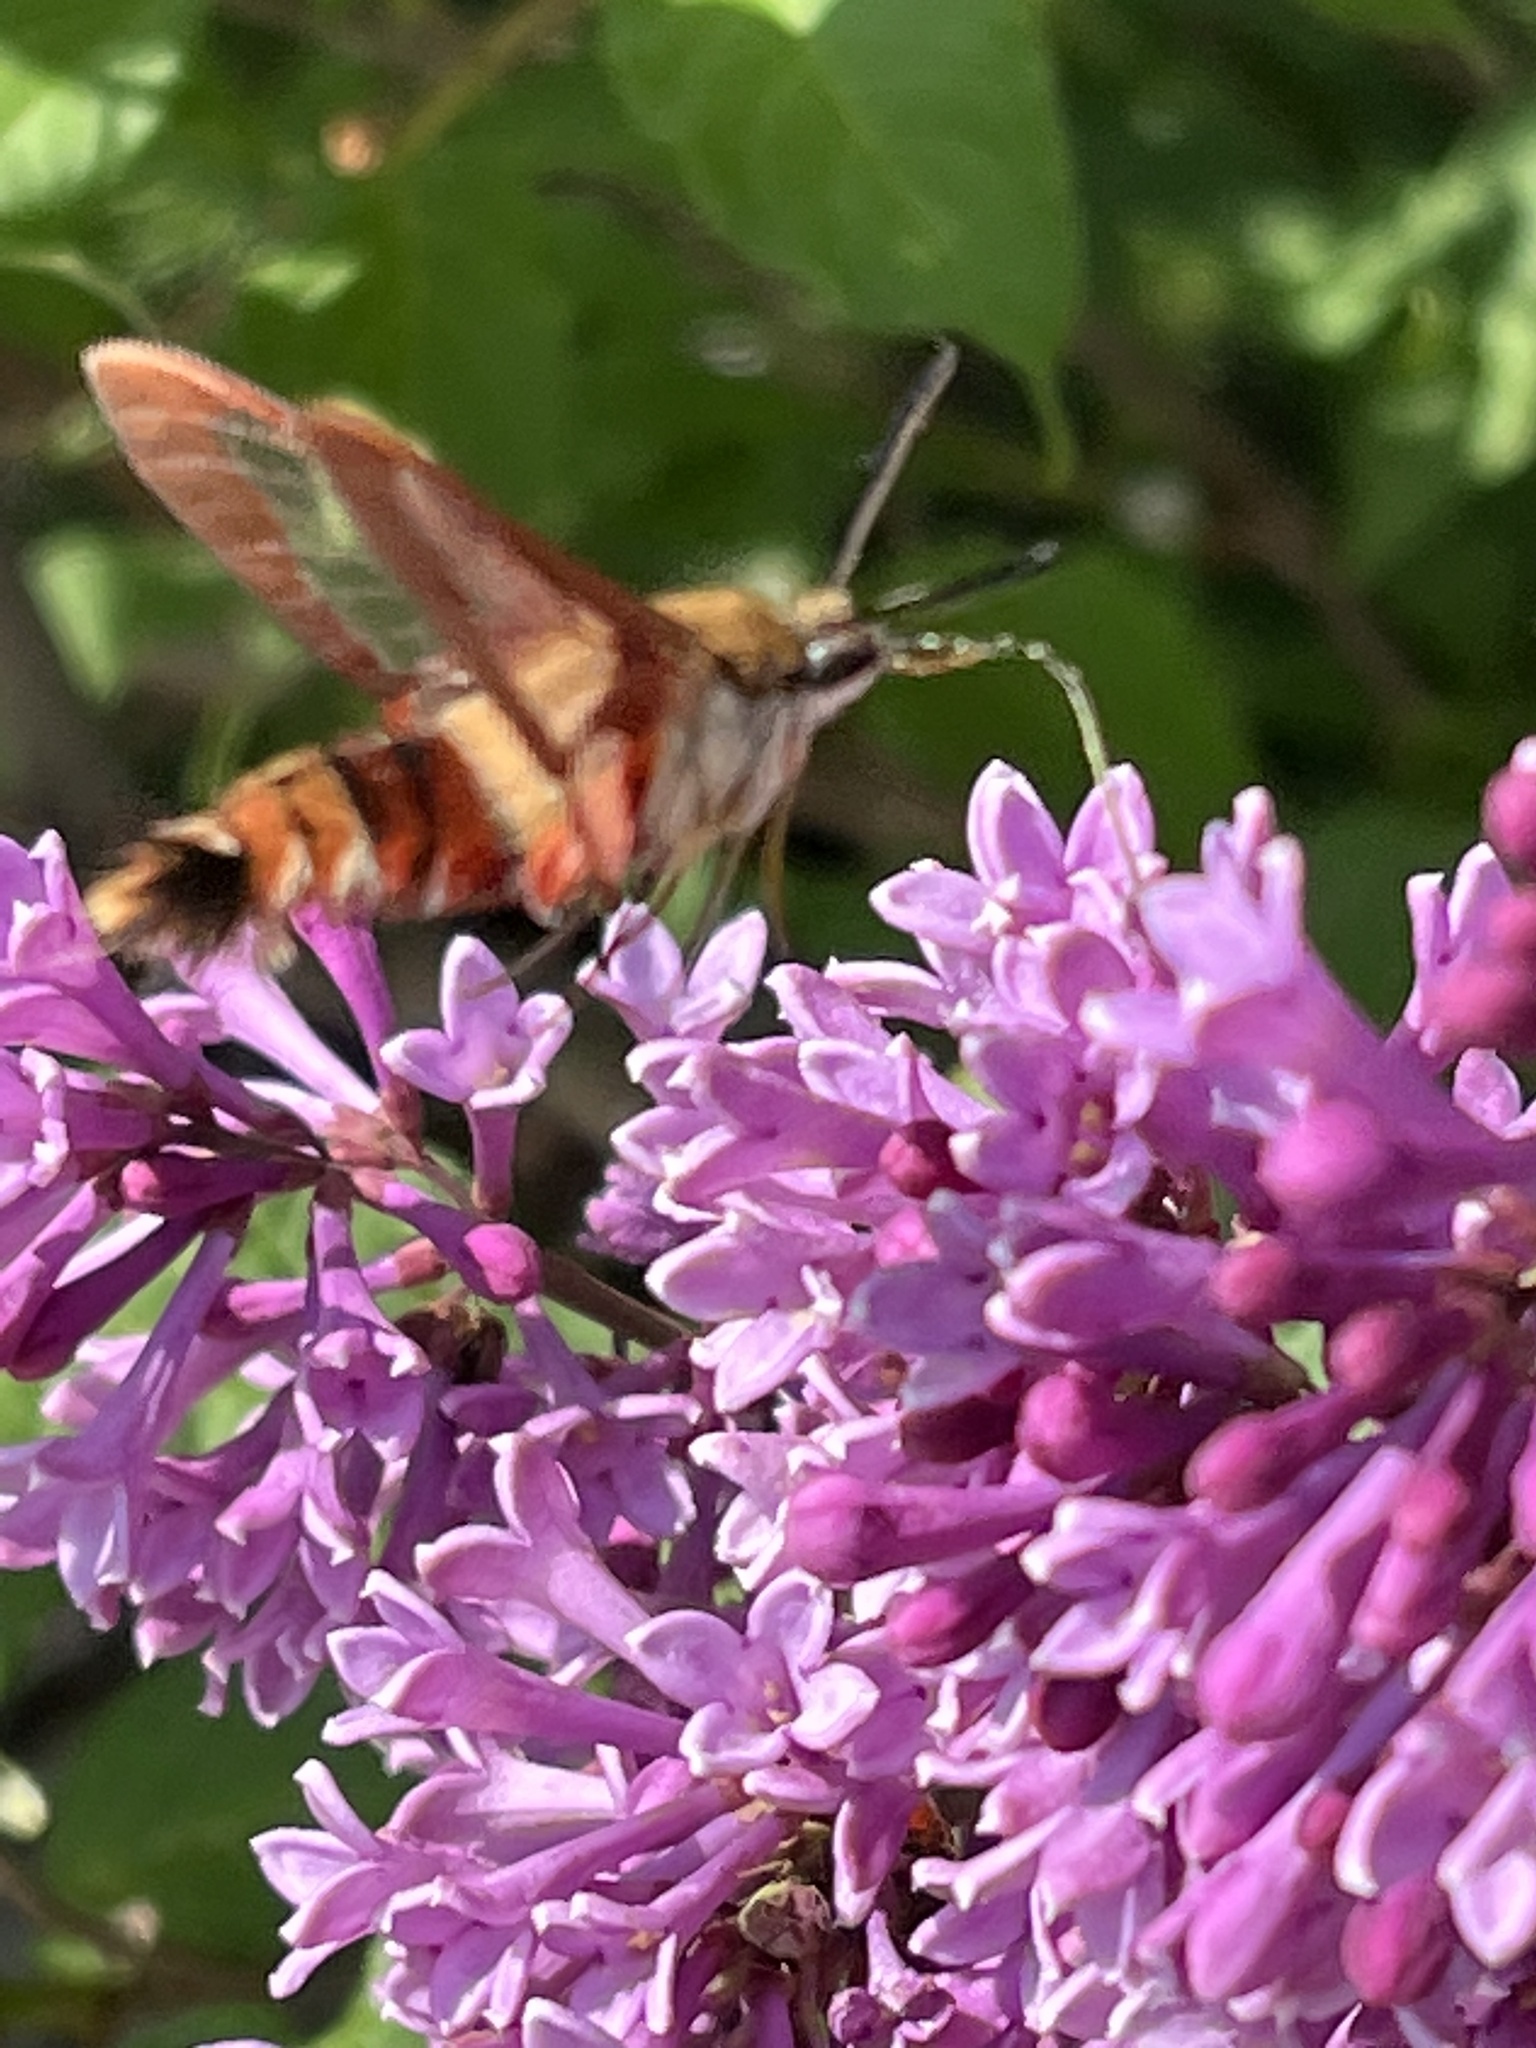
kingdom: Animalia
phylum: Arthropoda
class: Insecta
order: Lepidoptera
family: Sphingidae
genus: Hemaris
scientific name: Hemaris thysbe
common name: Common clear-wing
